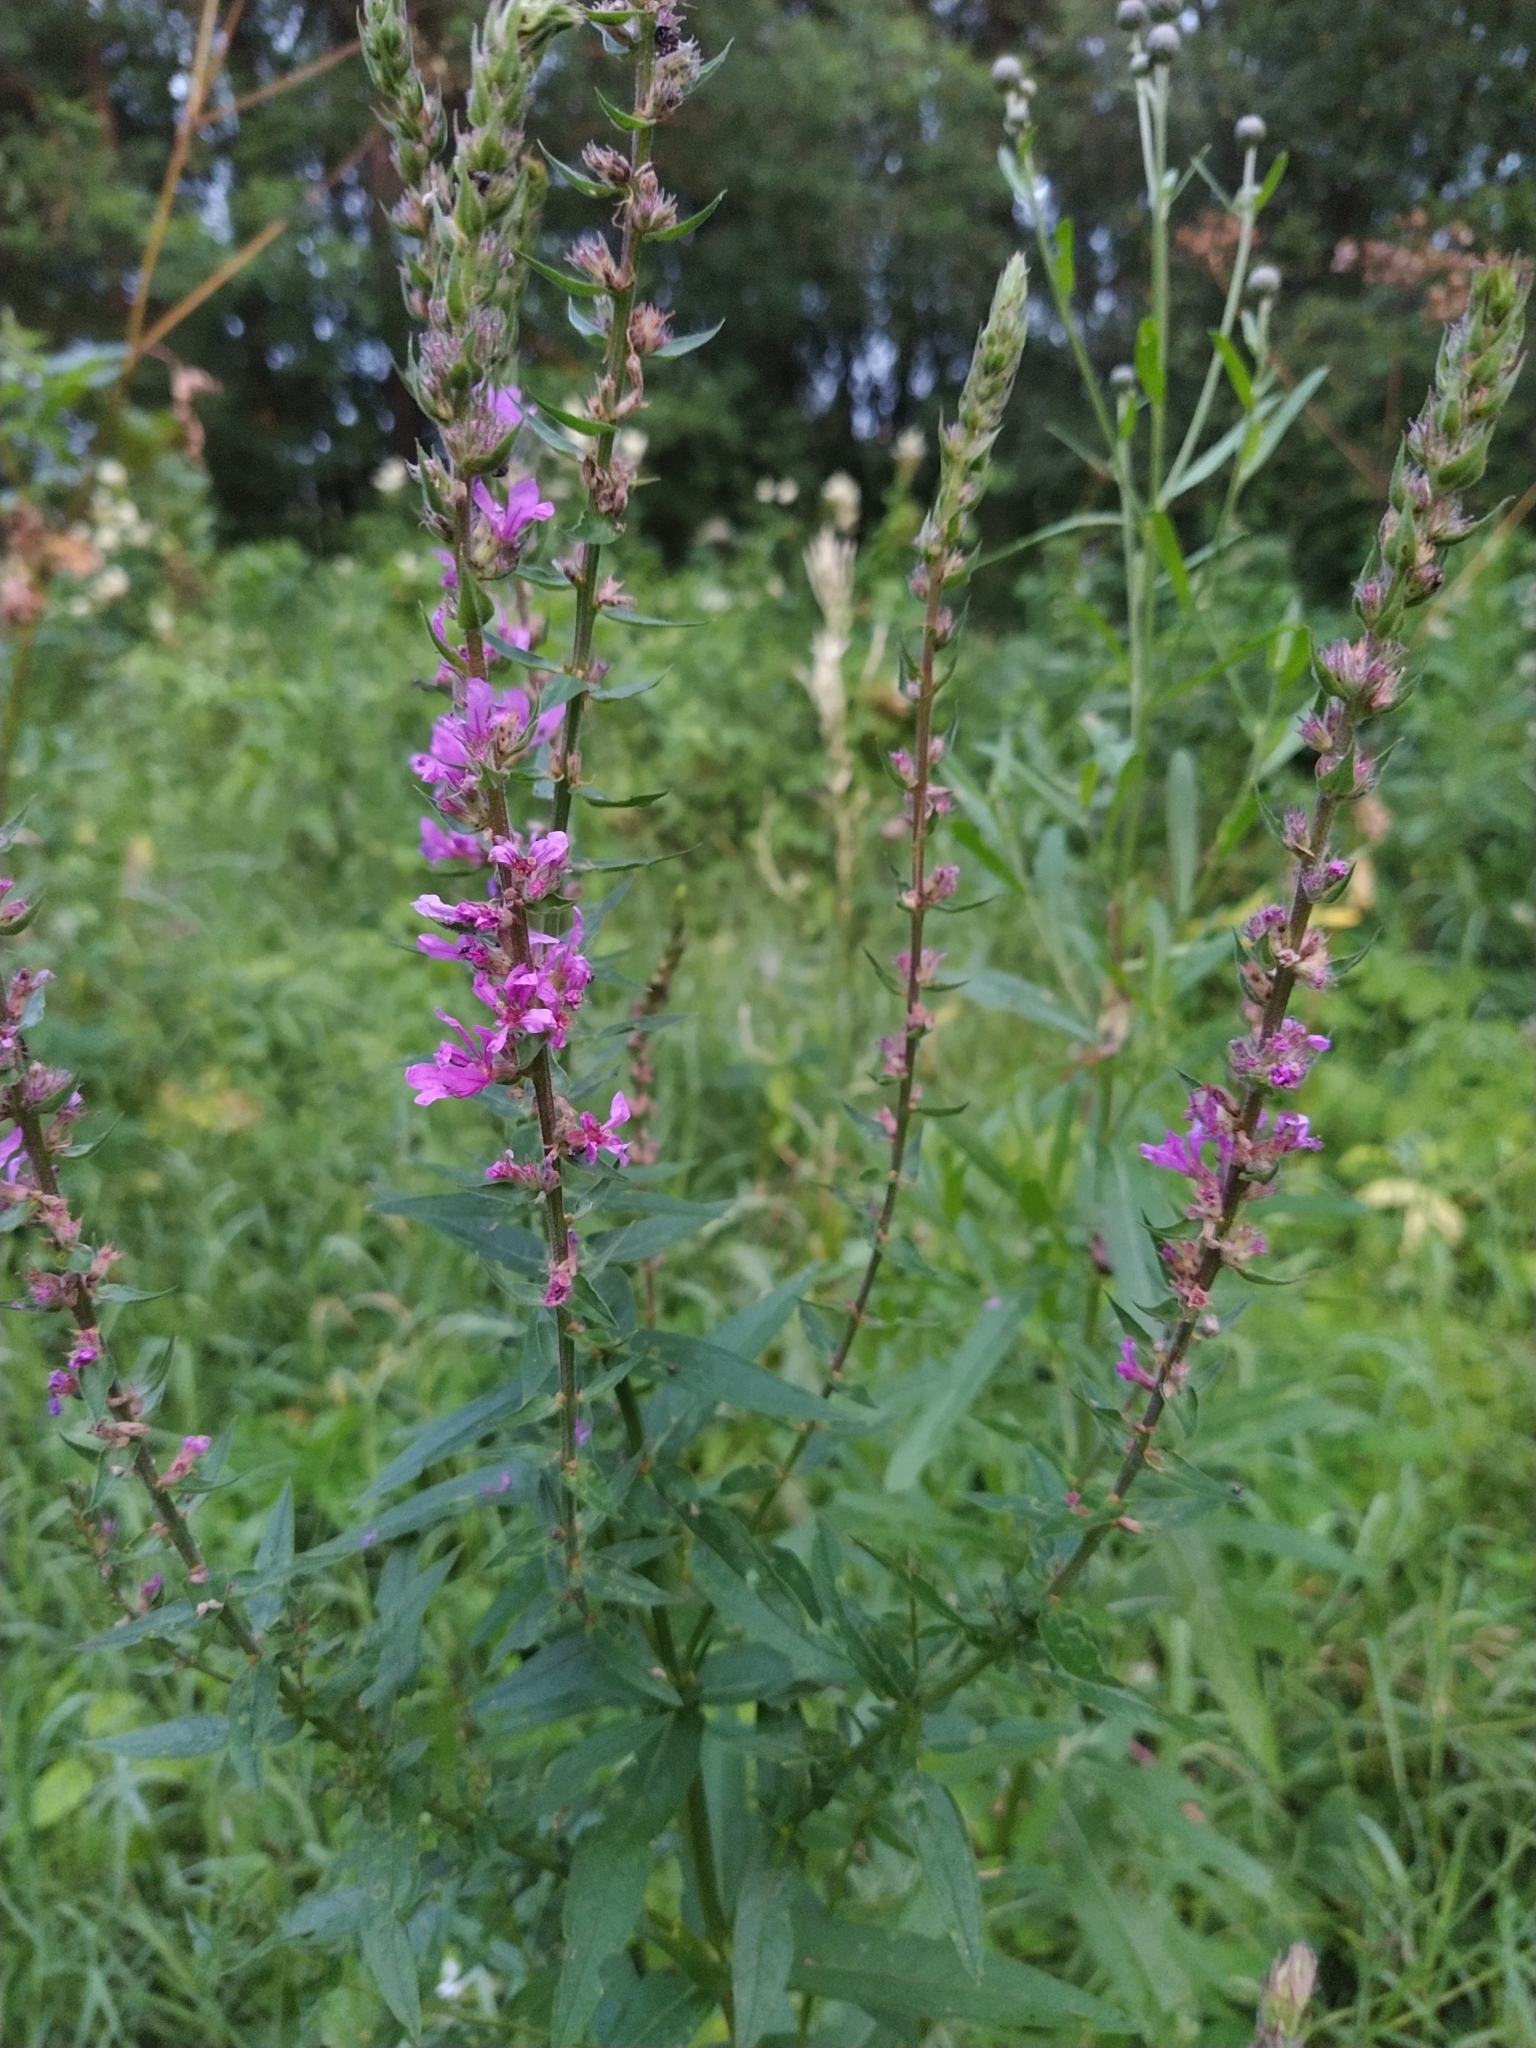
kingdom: Plantae
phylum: Tracheophyta
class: Magnoliopsida
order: Myrtales
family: Lythraceae
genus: Lythrum
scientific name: Lythrum salicaria
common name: Purple loosestrife
